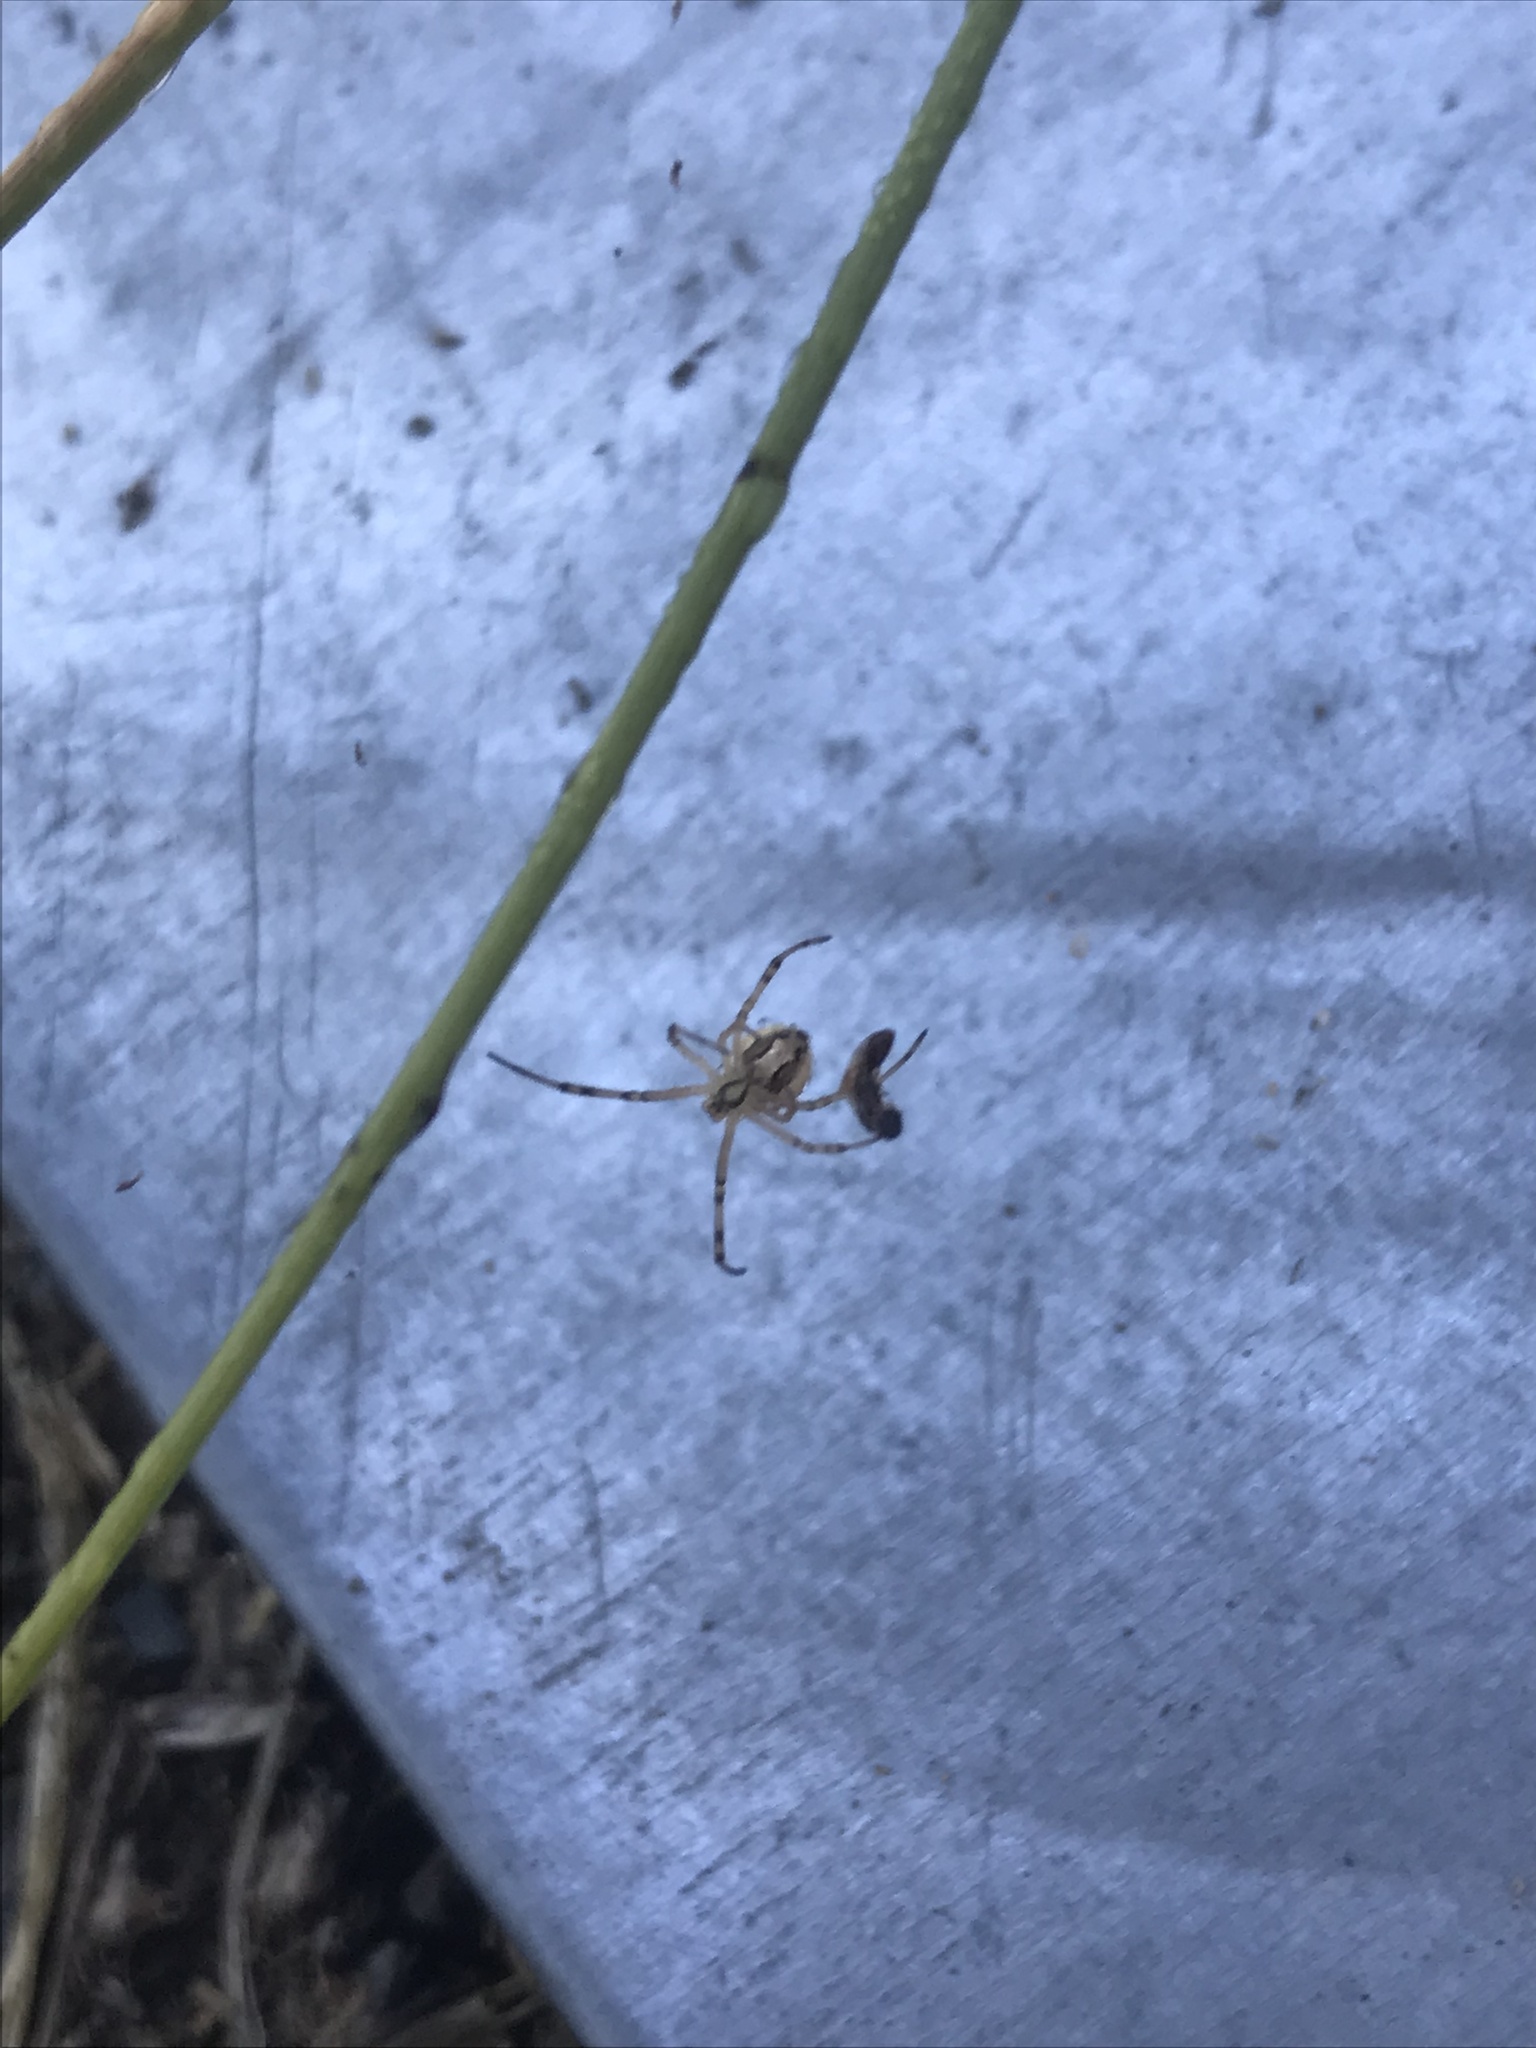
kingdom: Animalia
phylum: Arthropoda
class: Arachnida
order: Araneae
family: Theridiidae
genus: Latrodectus
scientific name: Latrodectus hesperus
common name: Western black widow
